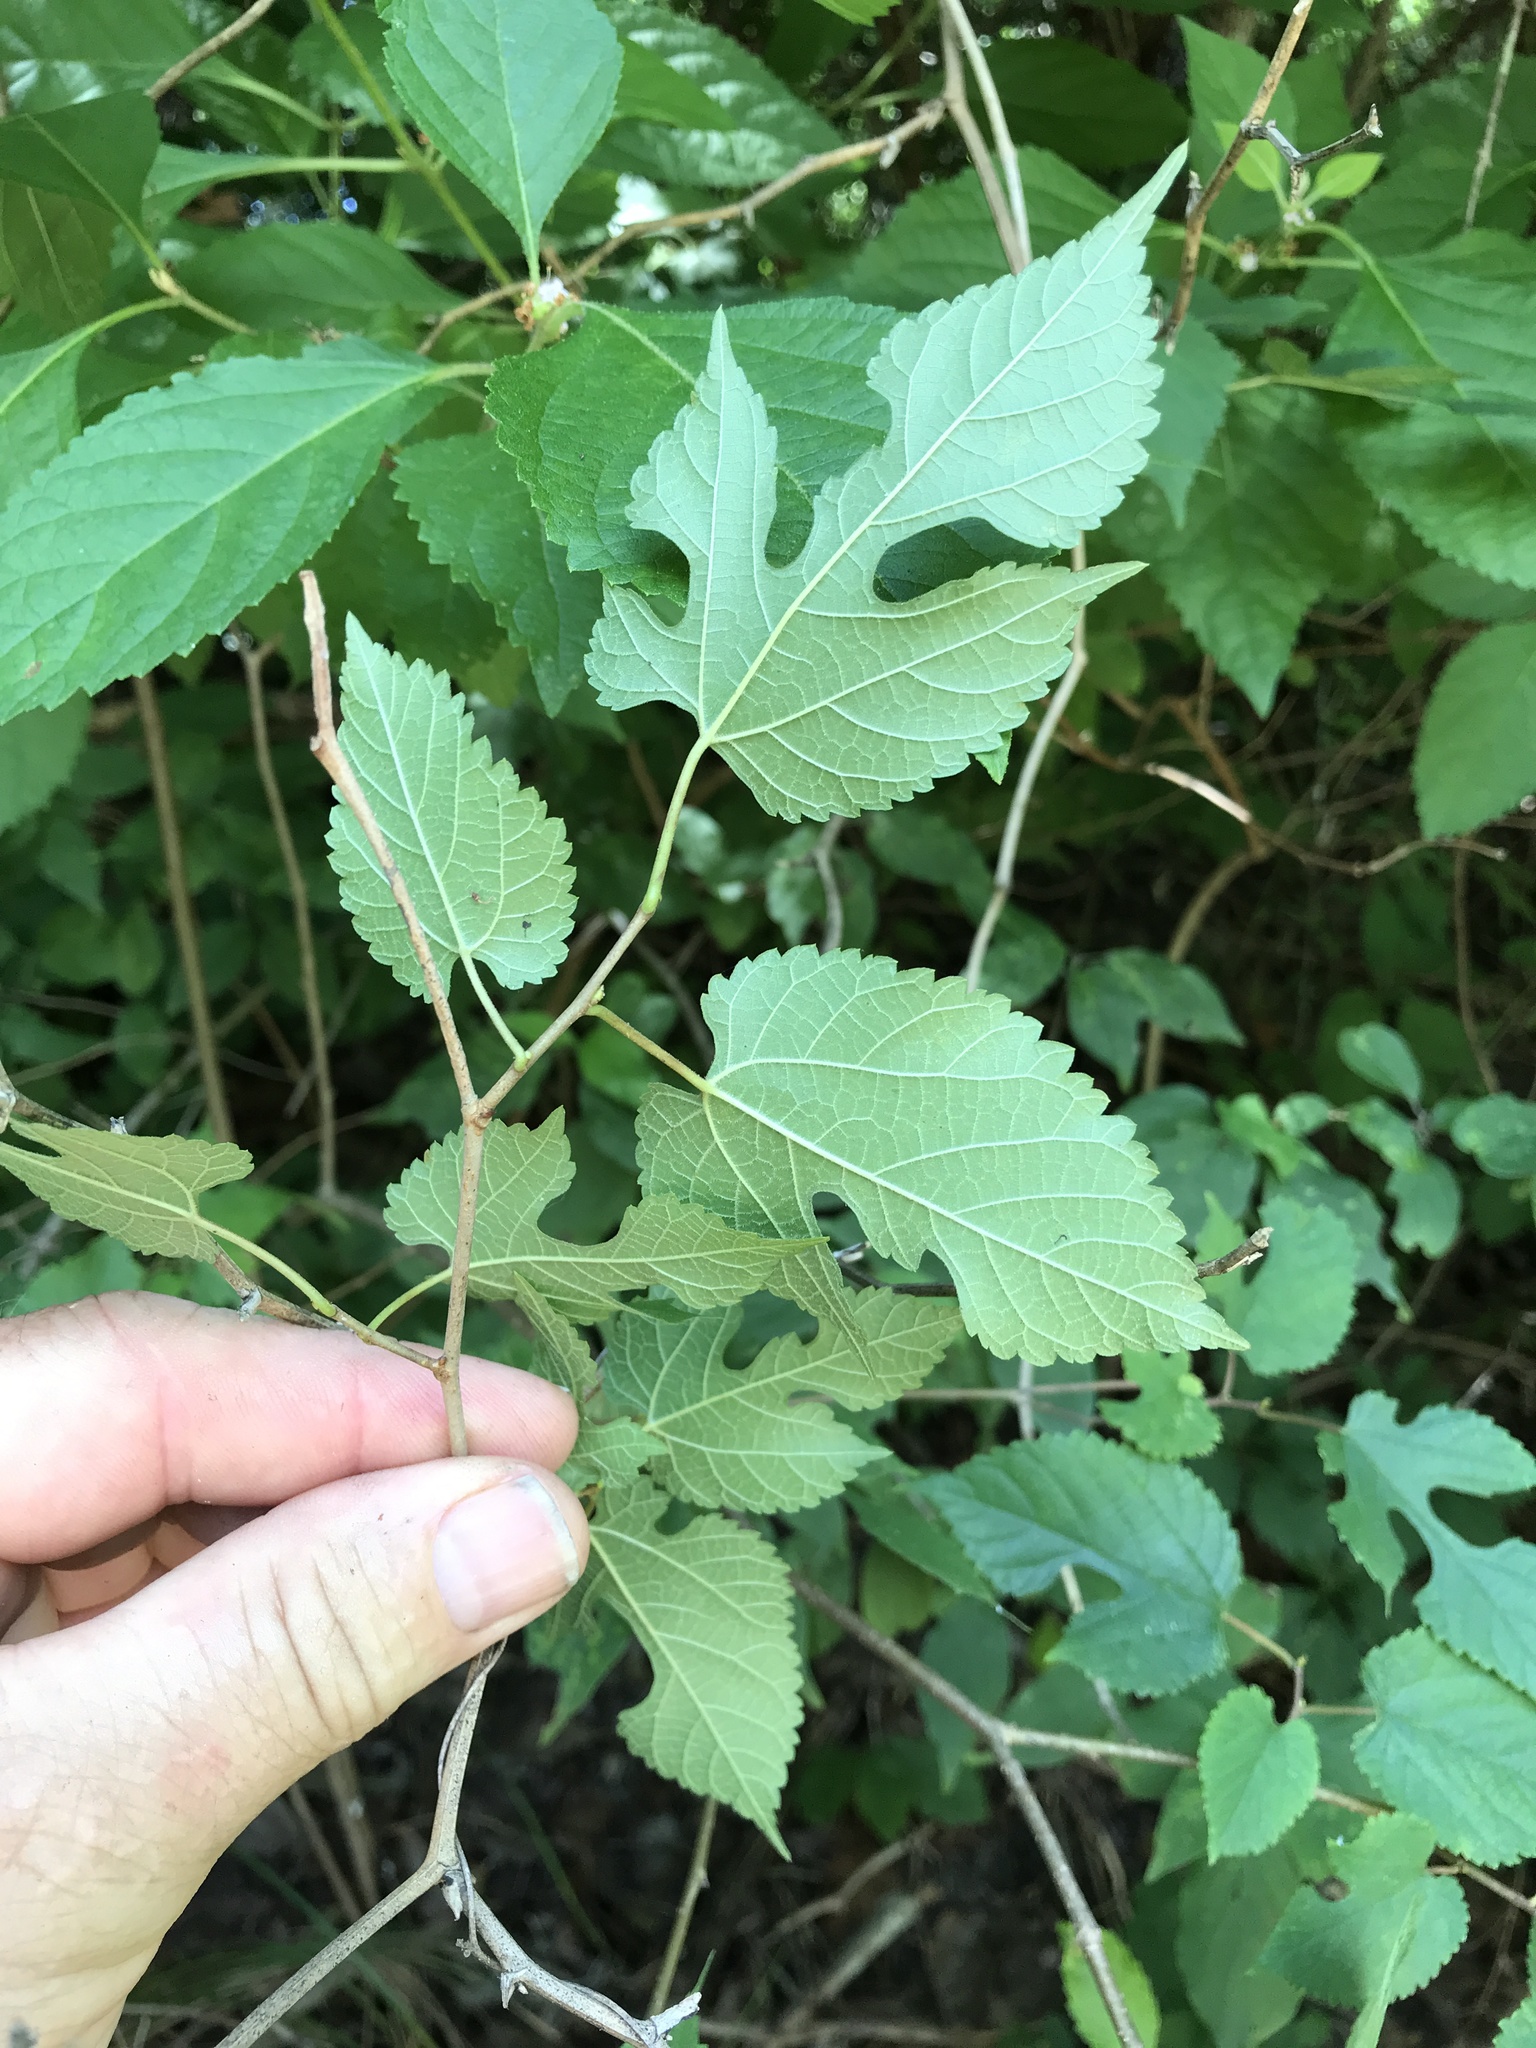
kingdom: Plantae
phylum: Tracheophyta
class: Magnoliopsida
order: Rosales
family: Moraceae
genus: Morus
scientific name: Morus rubra
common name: Red mulberry
